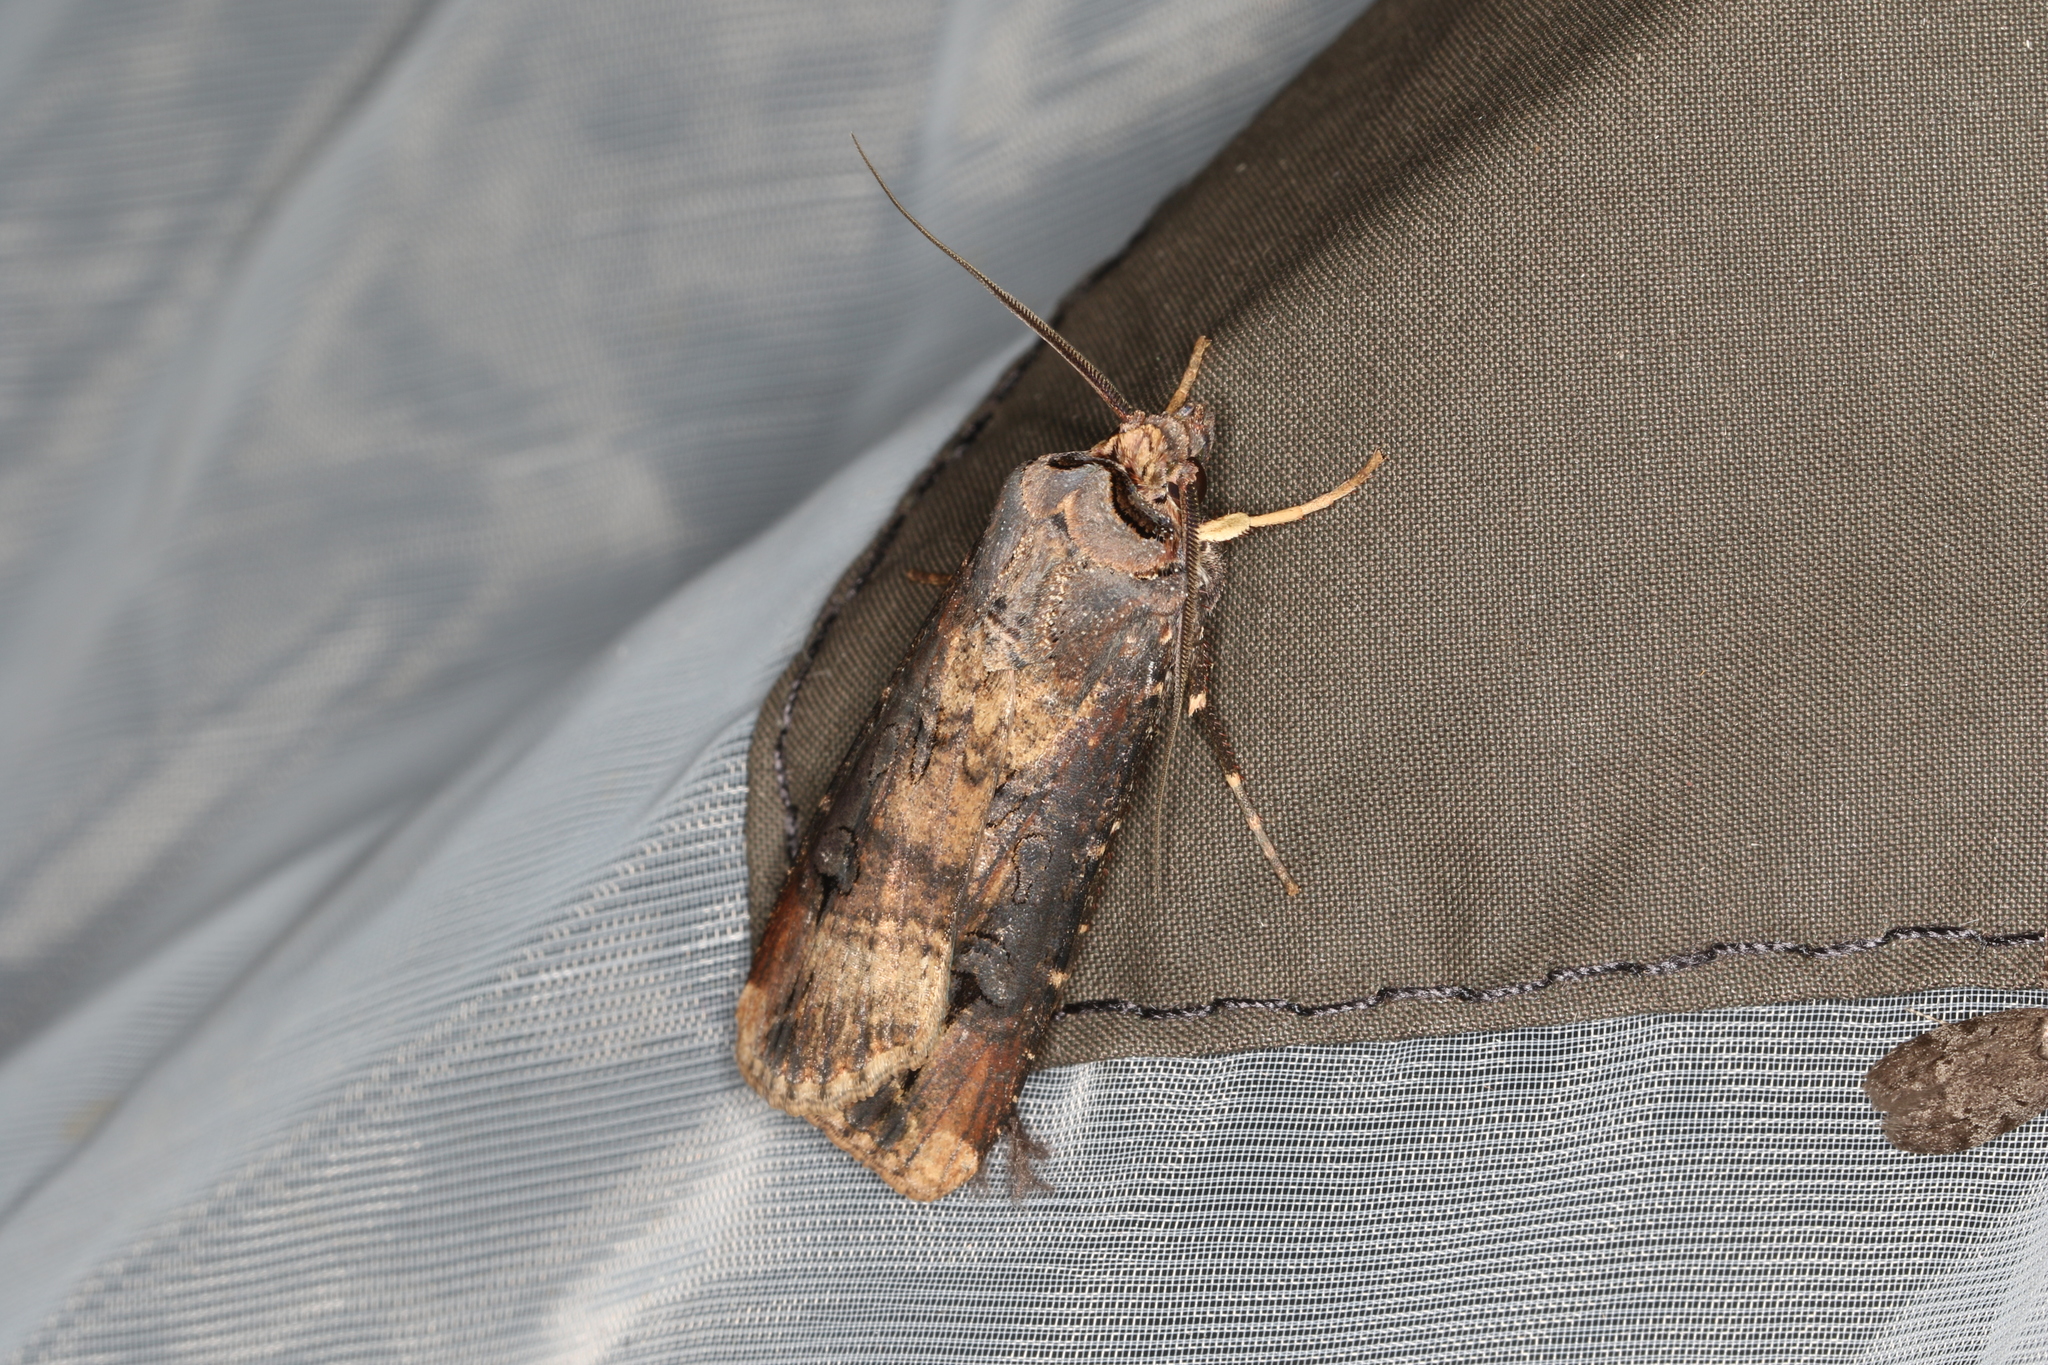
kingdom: Animalia
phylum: Arthropoda
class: Insecta
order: Lepidoptera
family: Noctuidae
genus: Agrotis
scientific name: Agrotis ipsilon
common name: Dark sword-grass
